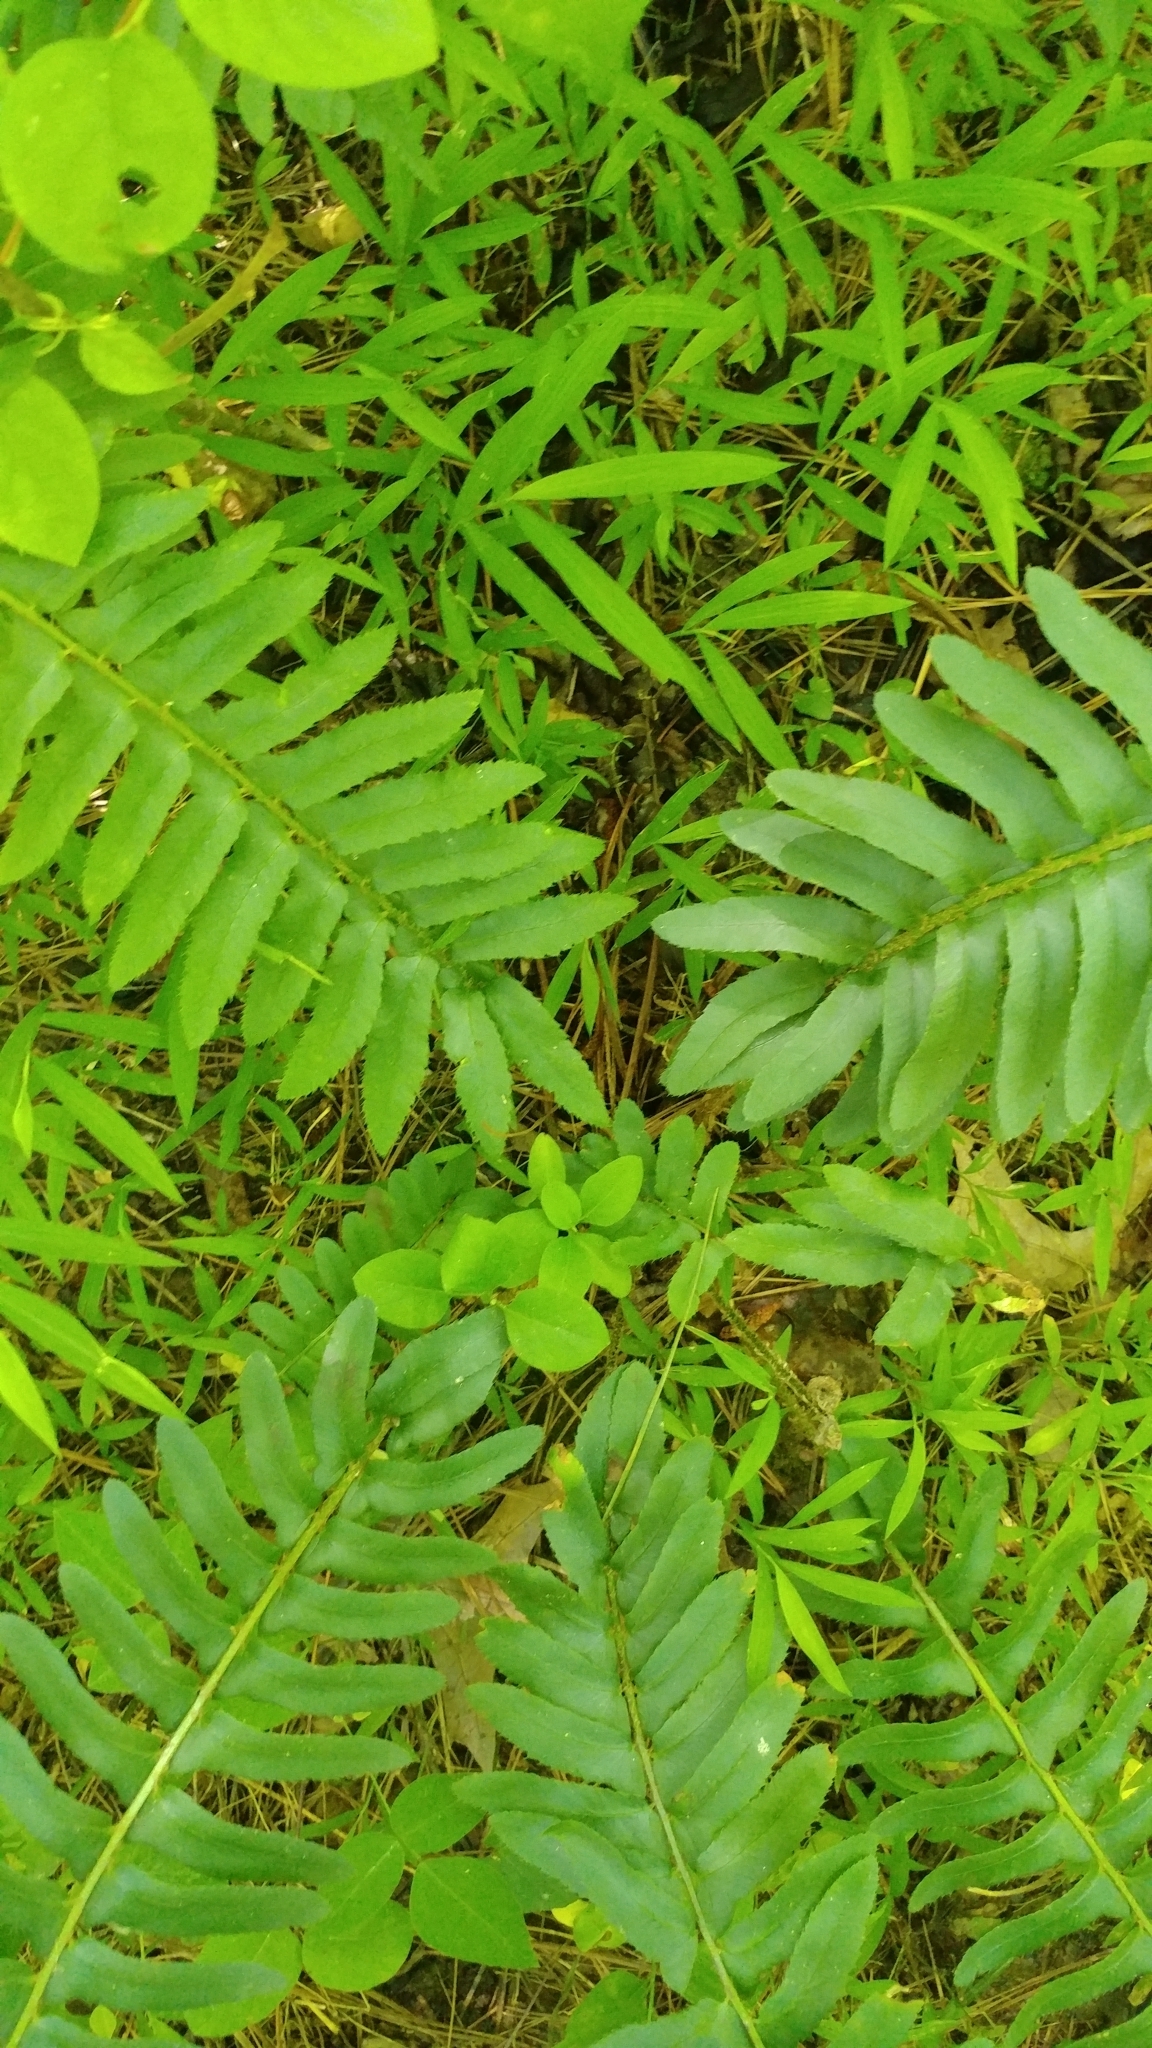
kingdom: Plantae
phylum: Tracheophyta
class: Polypodiopsida
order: Polypodiales
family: Dryopteridaceae
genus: Polystichum
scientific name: Polystichum acrostichoides
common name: Christmas fern
